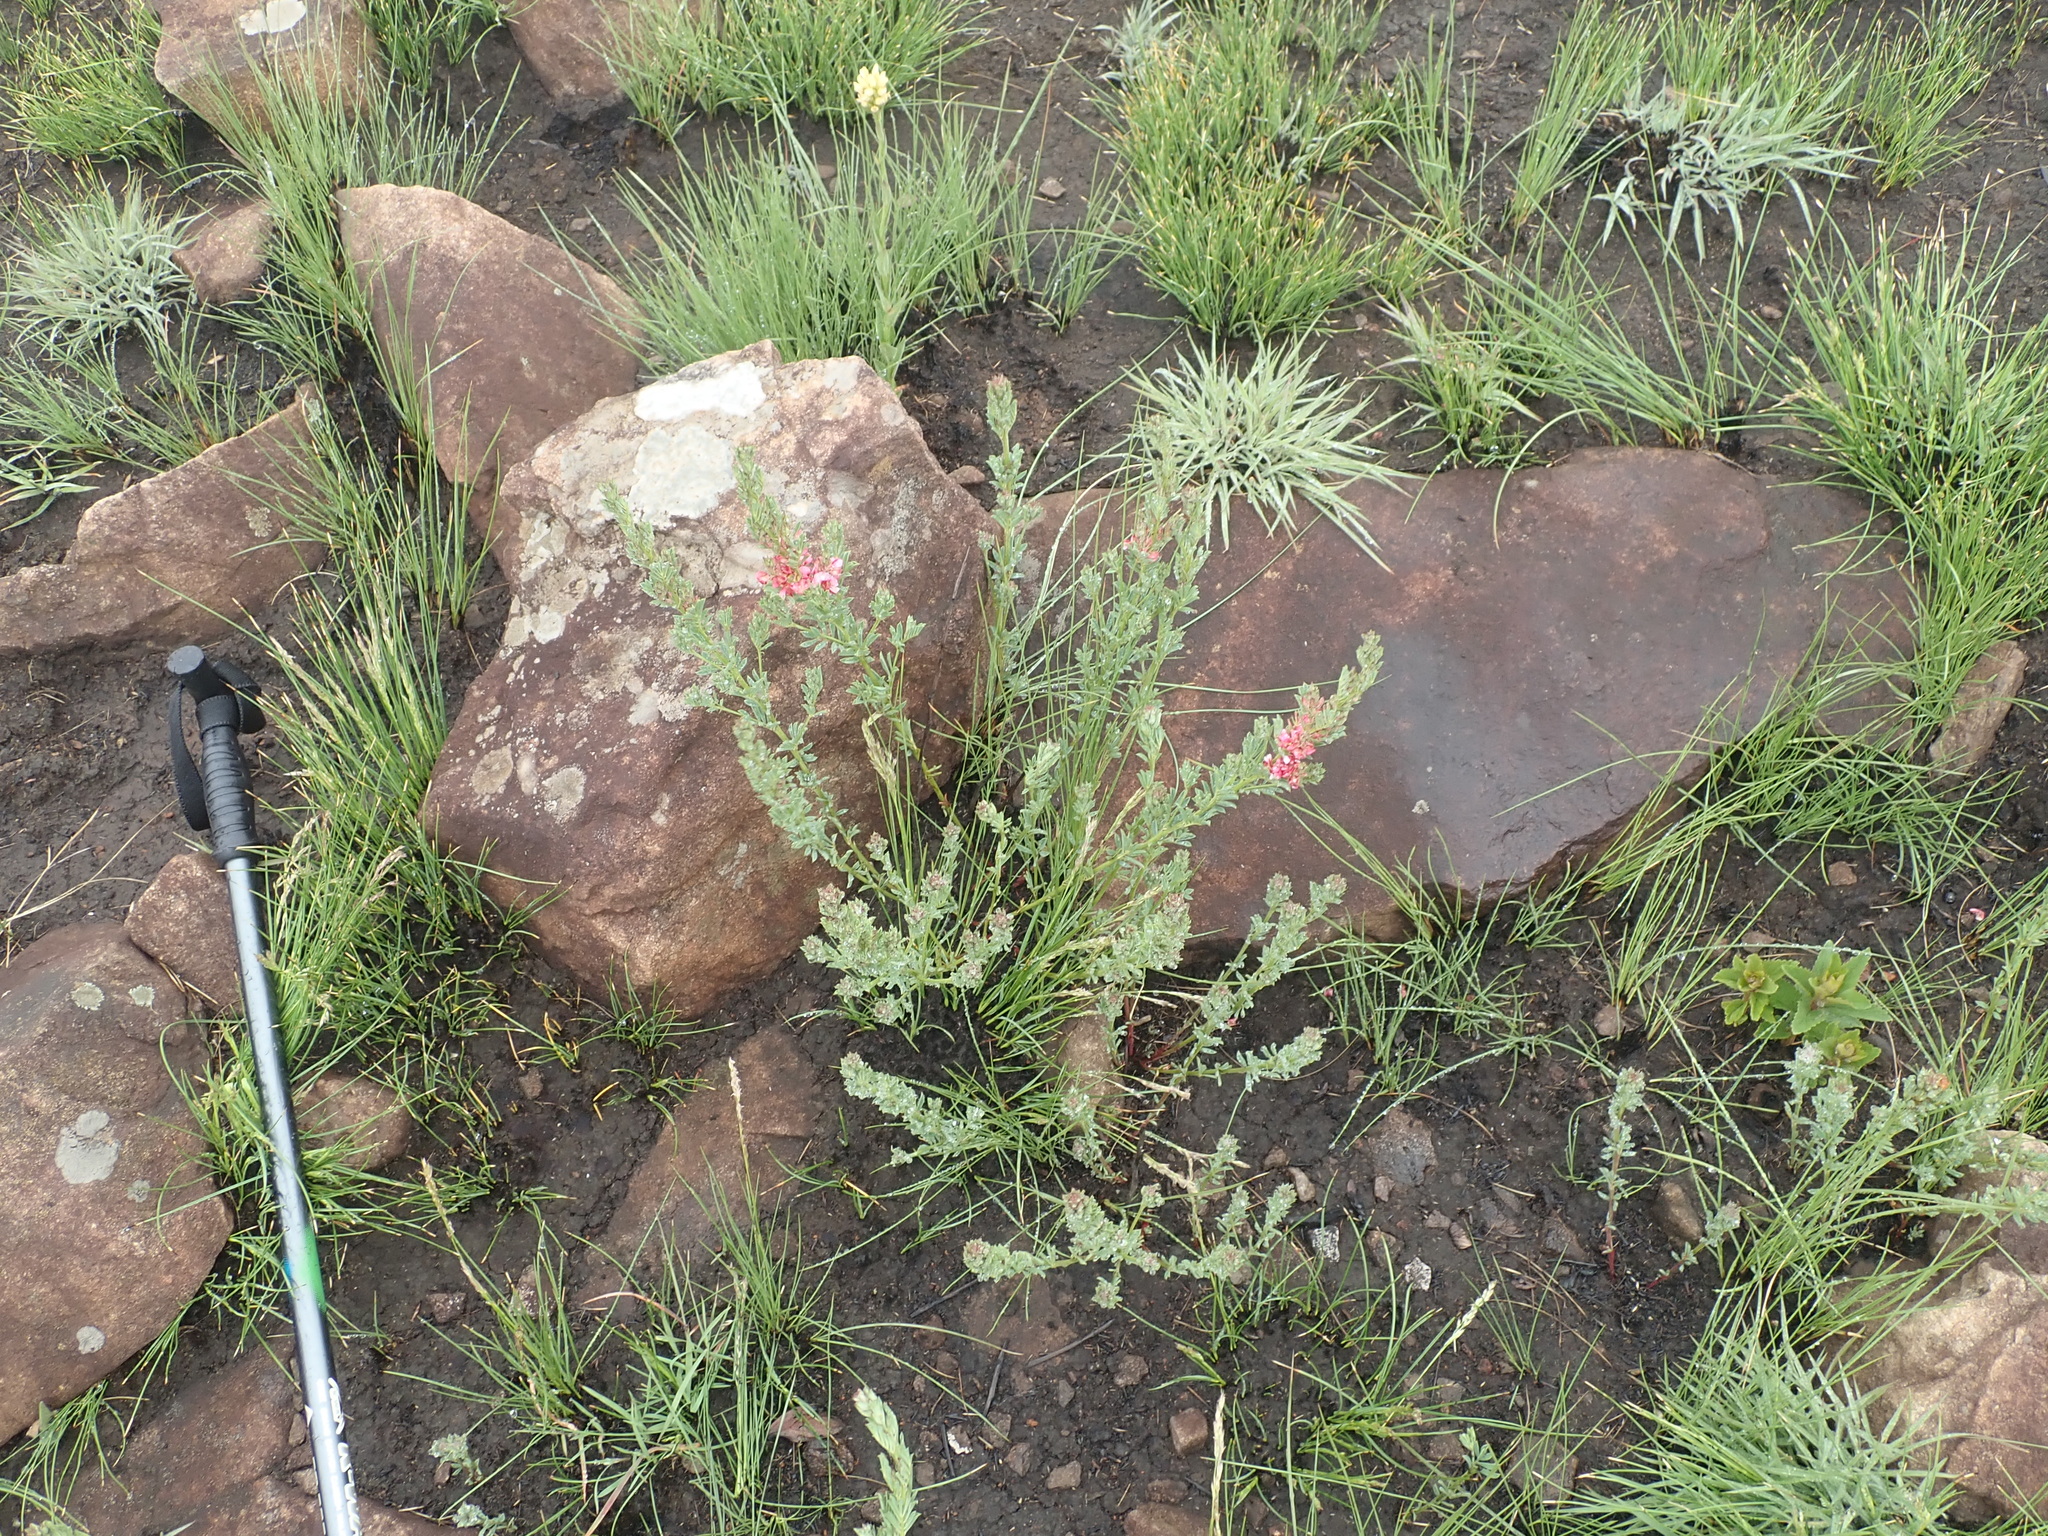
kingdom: Plantae
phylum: Tracheophyta
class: Magnoliopsida
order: Fabales
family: Fabaceae
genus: Indigofera
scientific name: Indigofera hilaris
